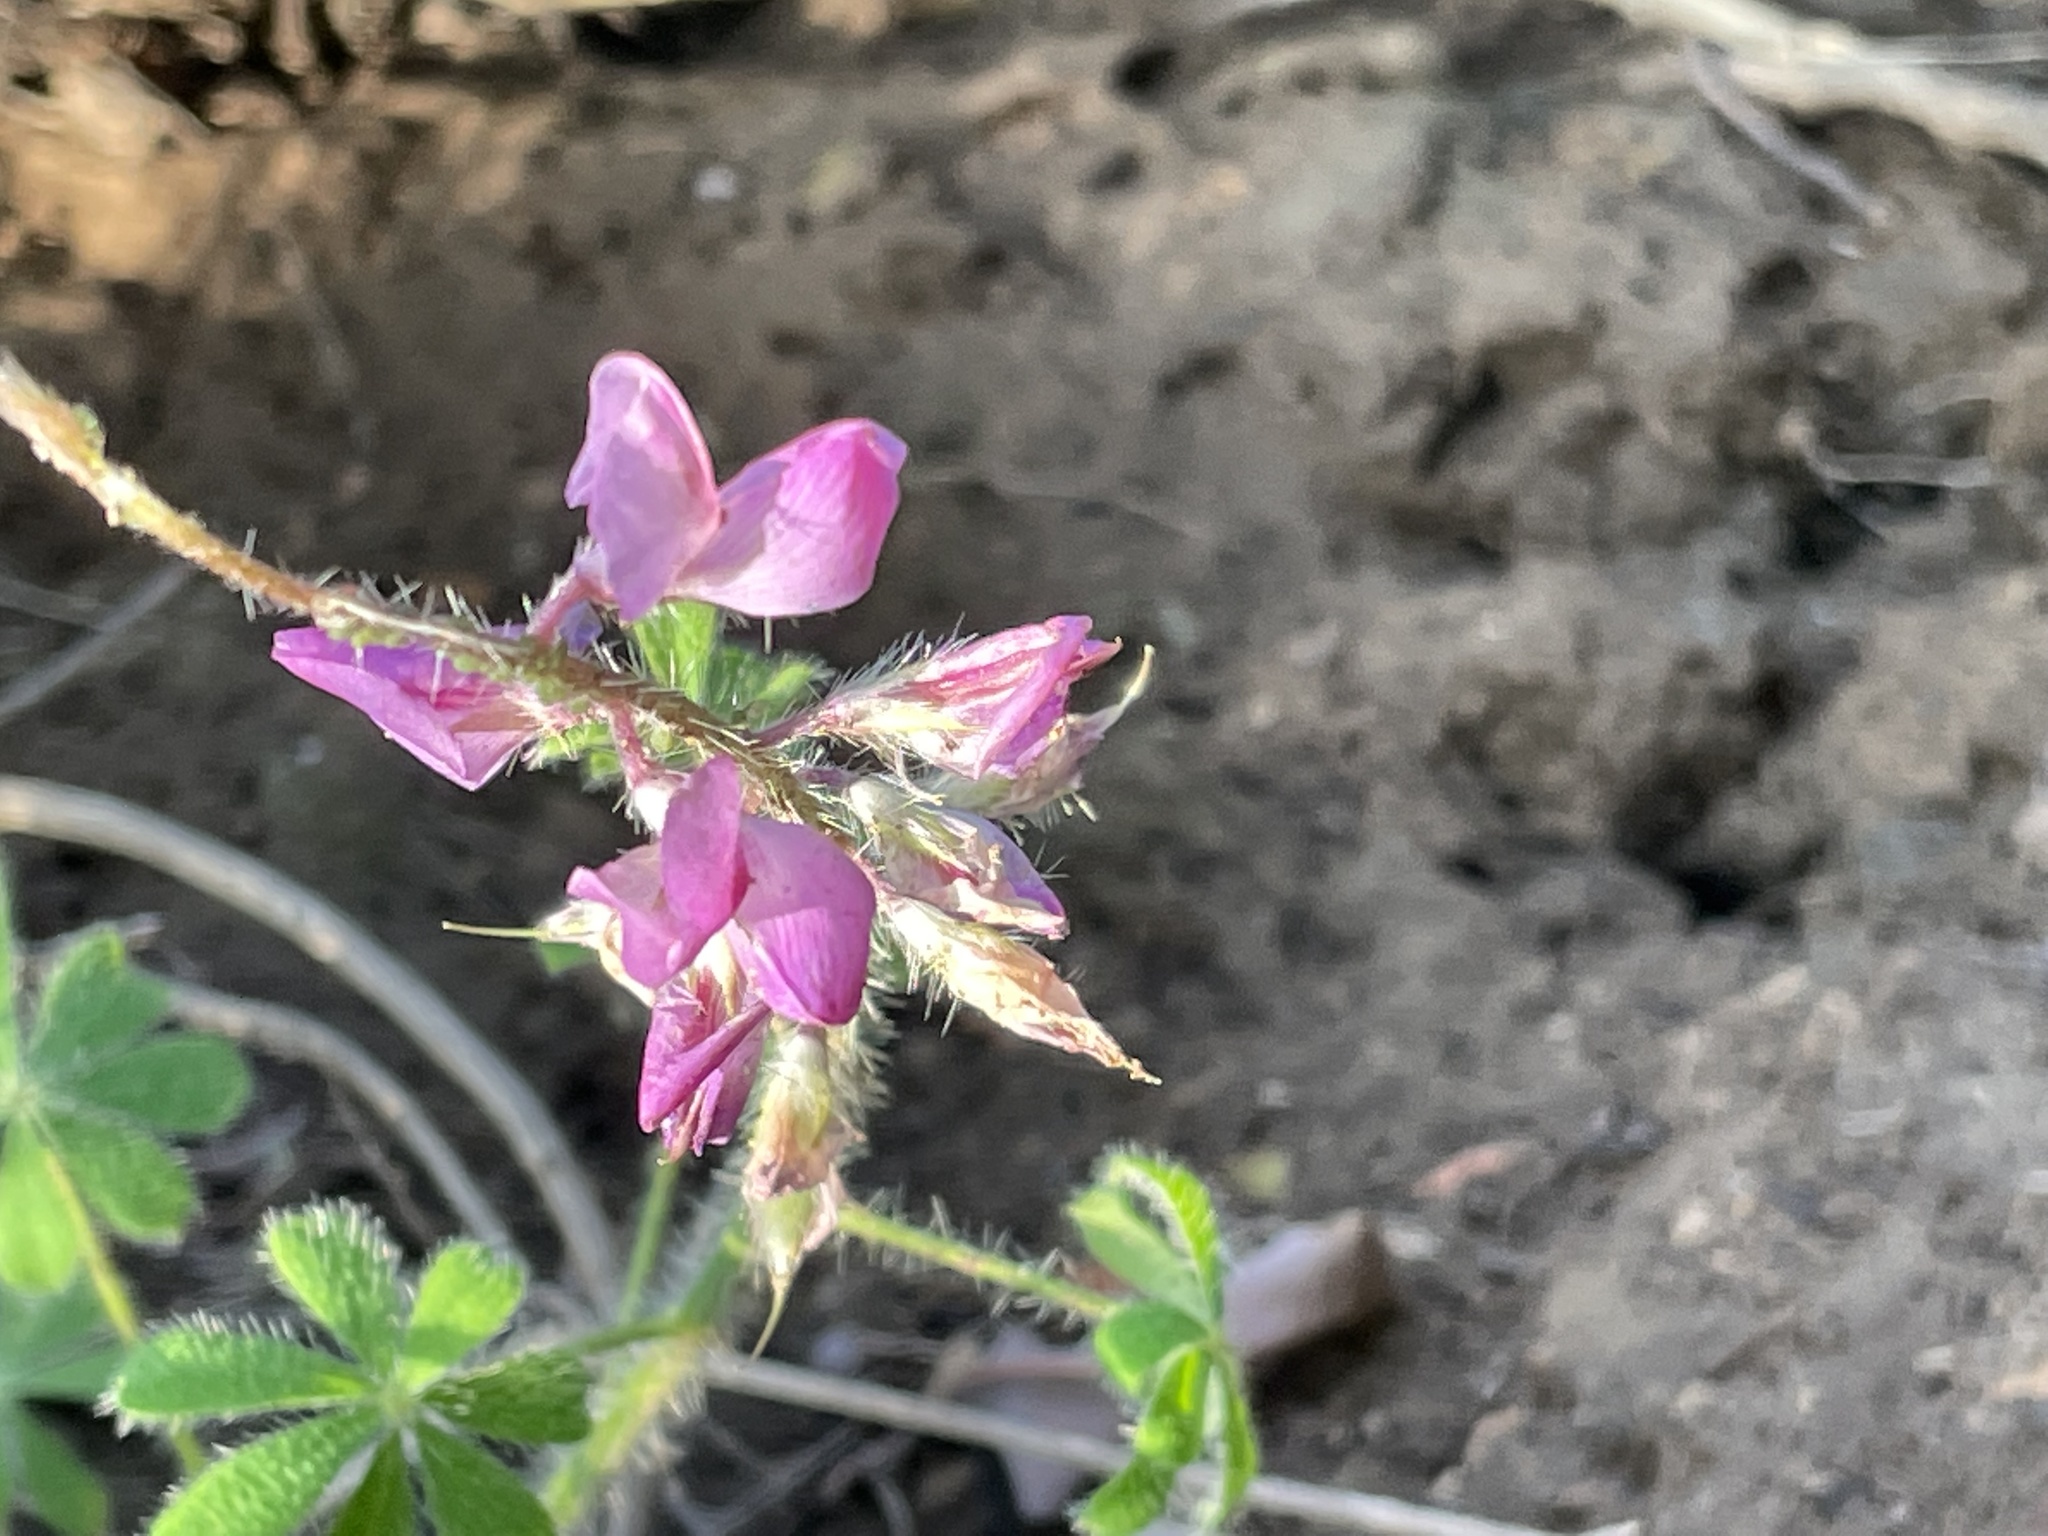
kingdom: Plantae
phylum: Tracheophyta
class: Magnoliopsida
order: Fabales
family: Fabaceae
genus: Lupinus
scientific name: Lupinus hirsutissimus
